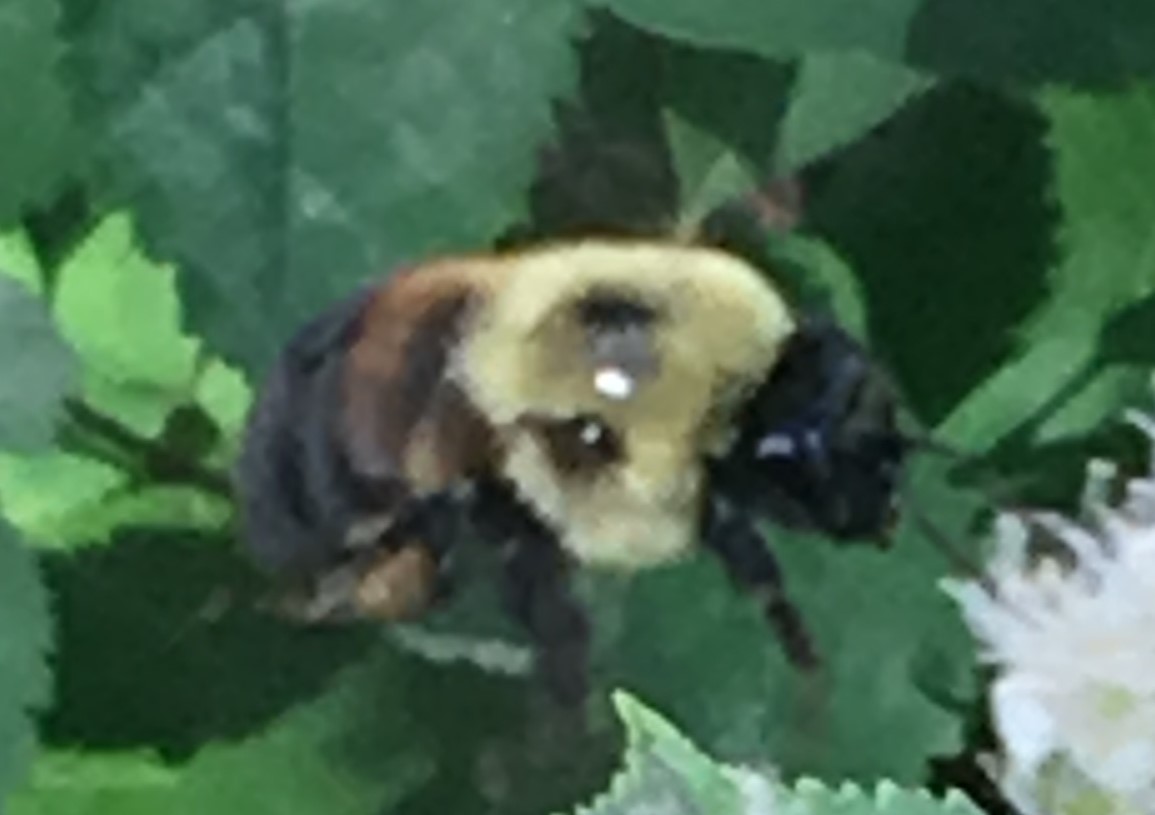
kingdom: Animalia
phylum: Arthropoda
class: Insecta
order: Hymenoptera
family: Apidae
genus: Bombus
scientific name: Bombus griseocollis
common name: Brown-belted bumble bee
